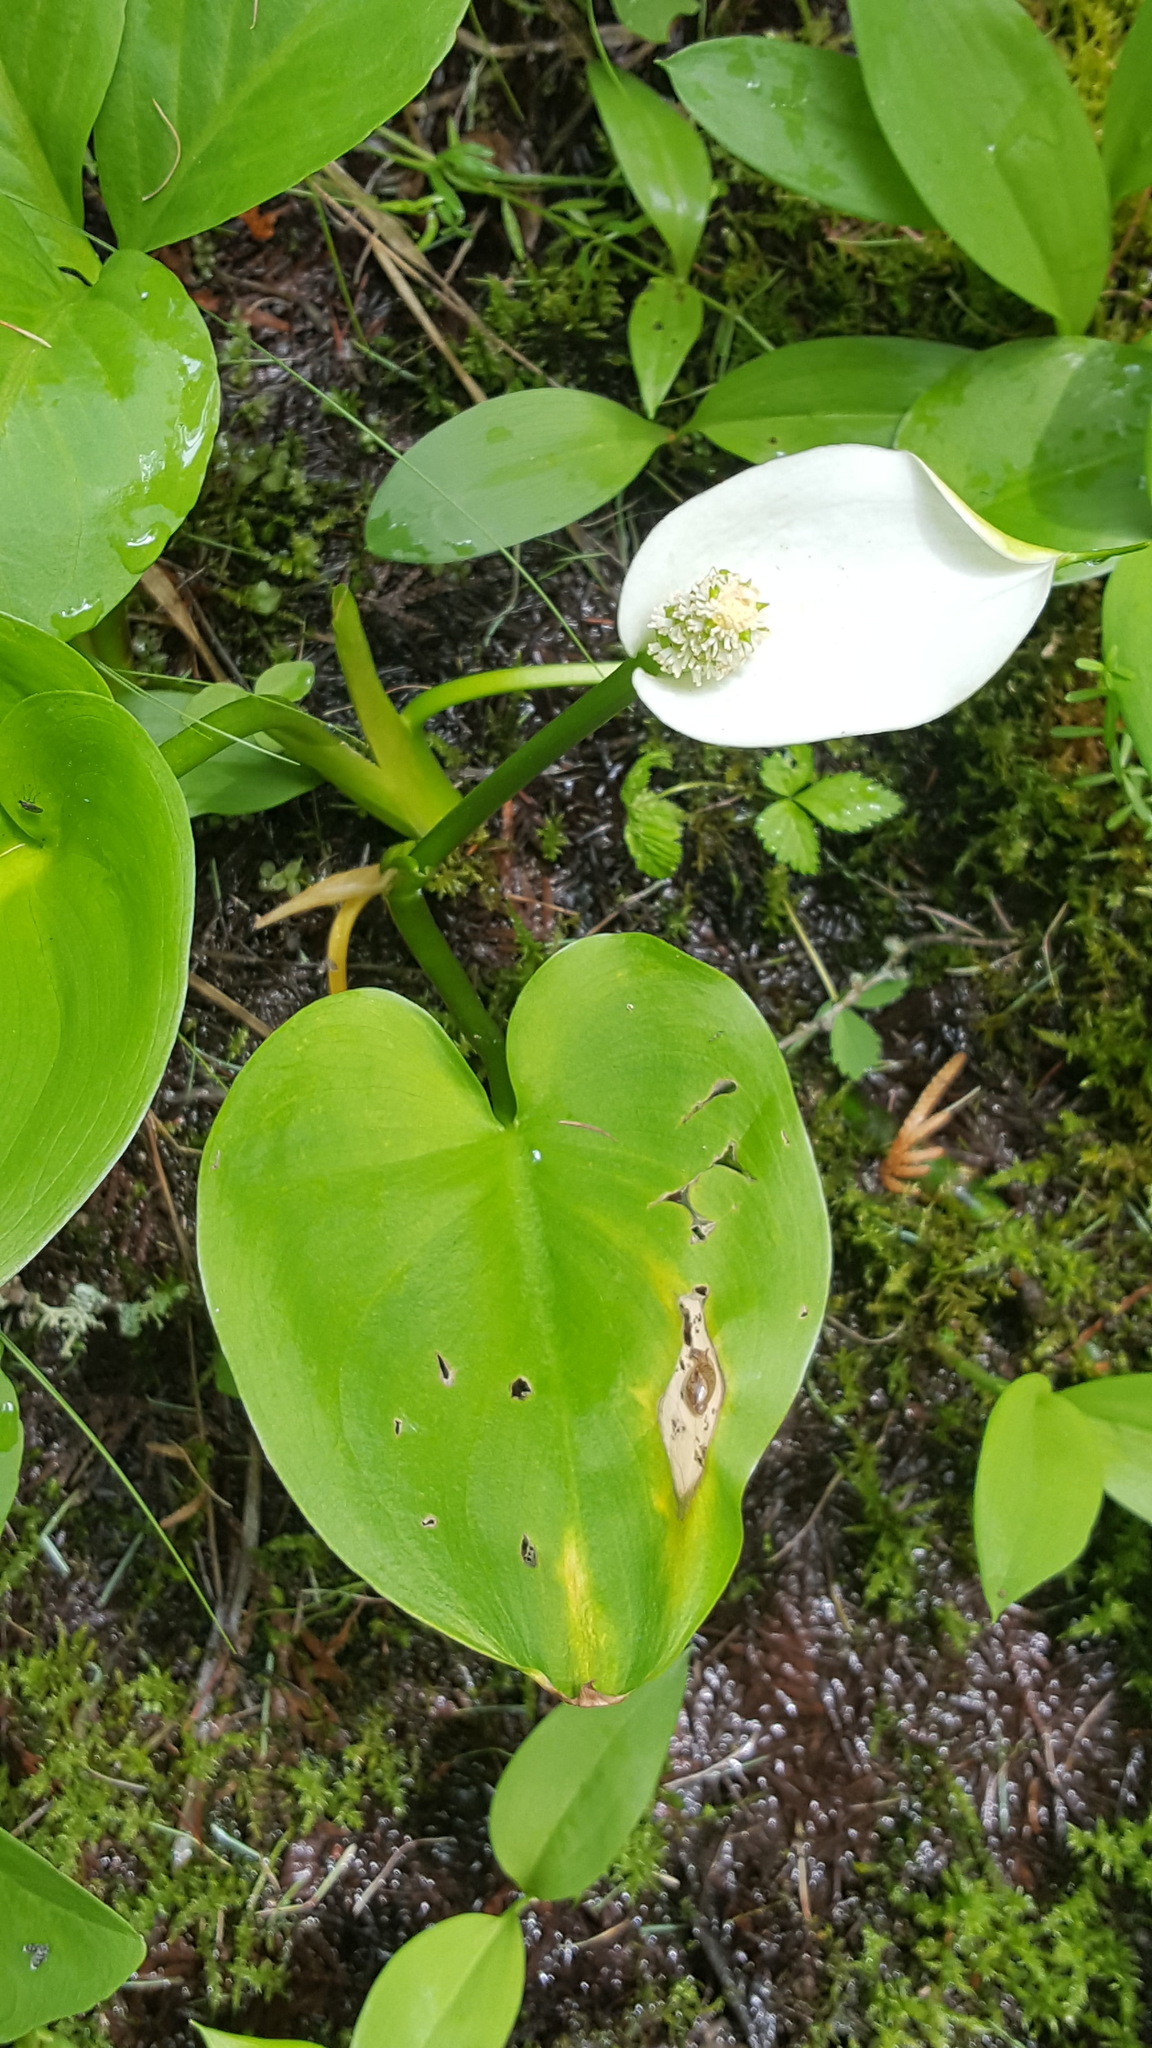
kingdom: Plantae
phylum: Tracheophyta
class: Liliopsida
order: Alismatales
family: Araceae
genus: Calla
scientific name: Calla palustris
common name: Bog arum
